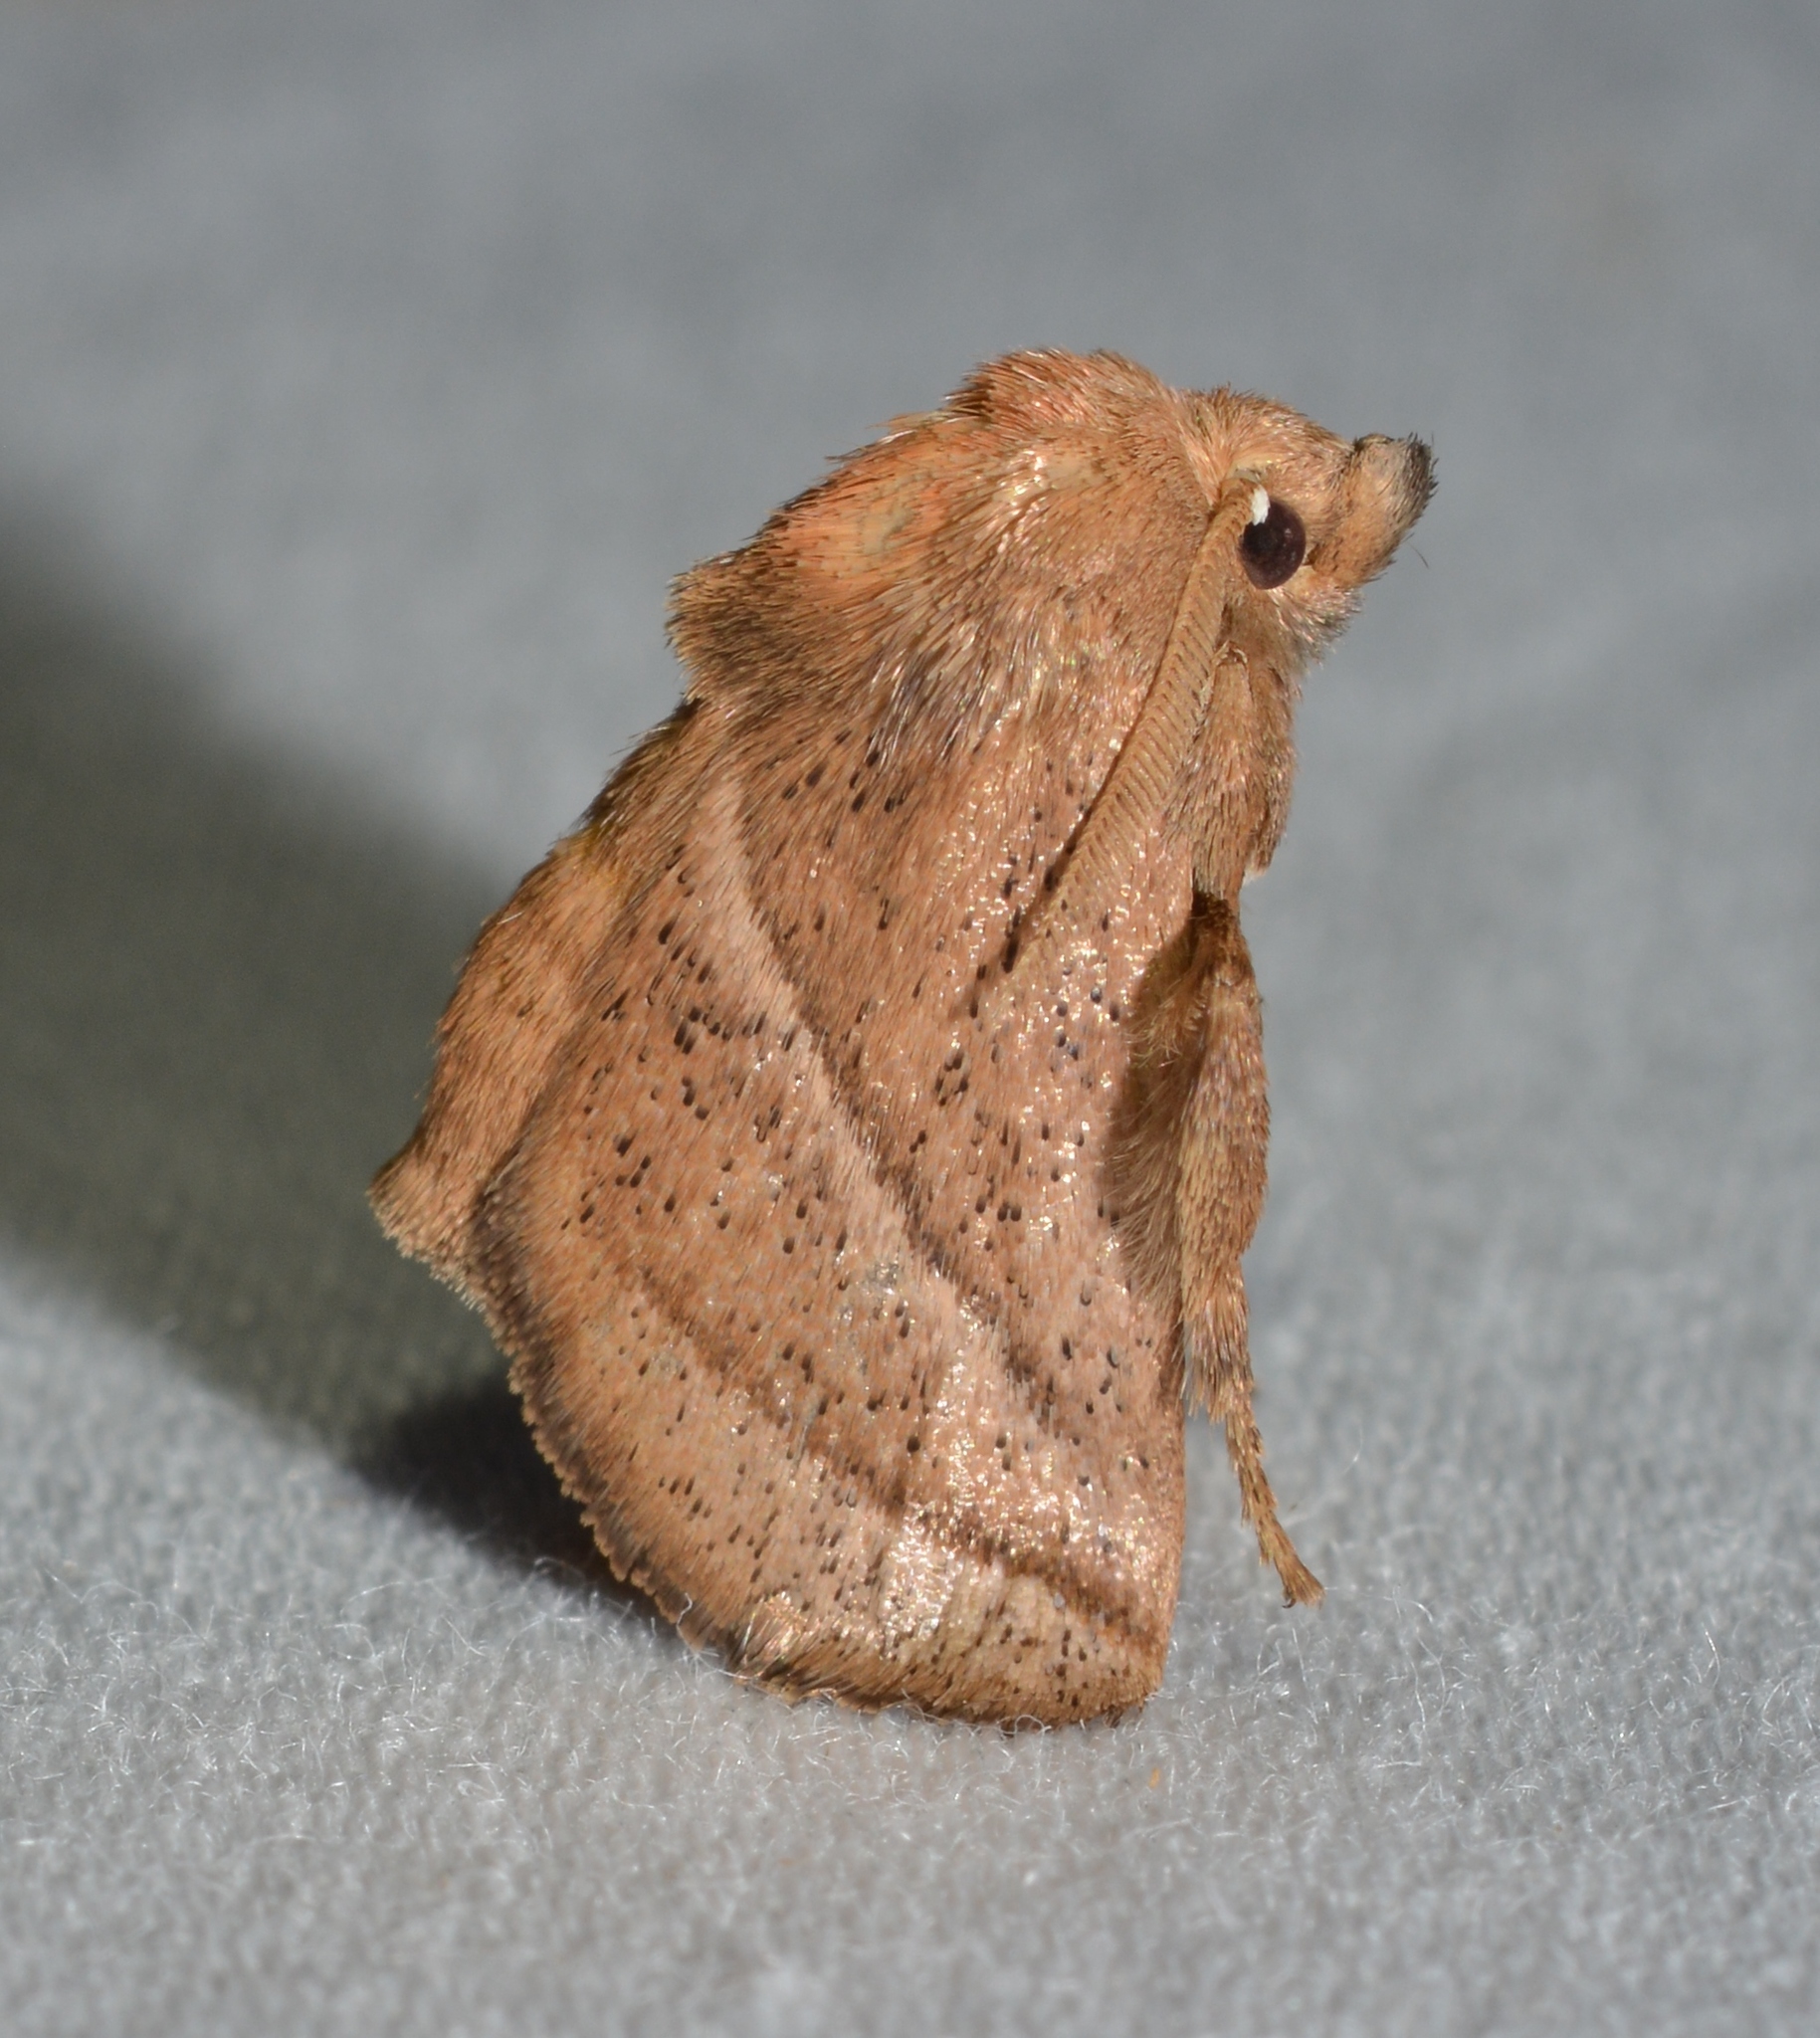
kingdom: Animalia
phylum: Arthropoda
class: Insecta
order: Lepidoptera
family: Limacodidae
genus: Natada
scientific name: Natada nasoni
